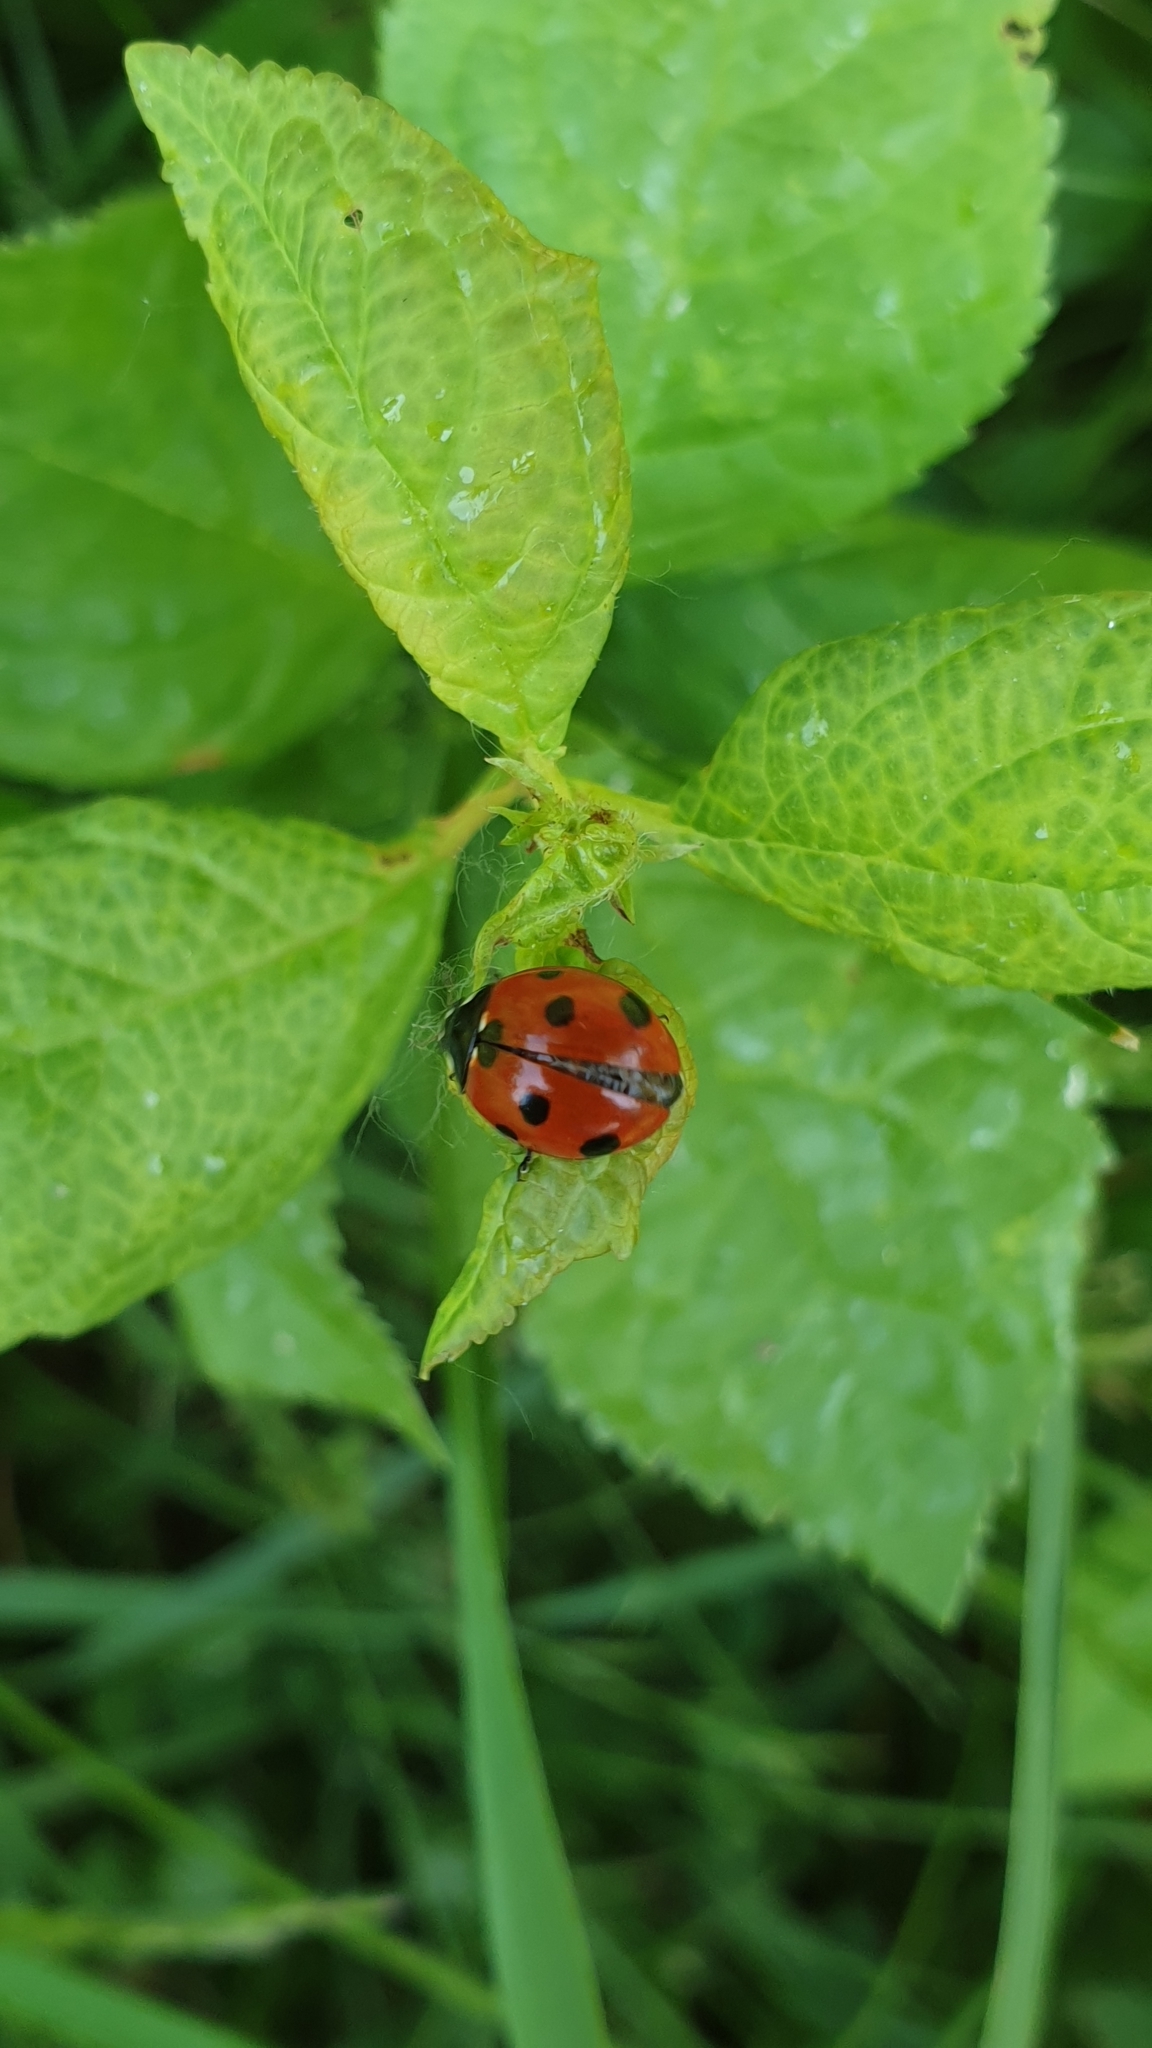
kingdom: Animalia
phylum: Arthropoda
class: Insecta
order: Coleoptera
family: Coccinellidae
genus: Coccinella
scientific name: Coccinella septempunctata
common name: Sevenspotted lady beetle
